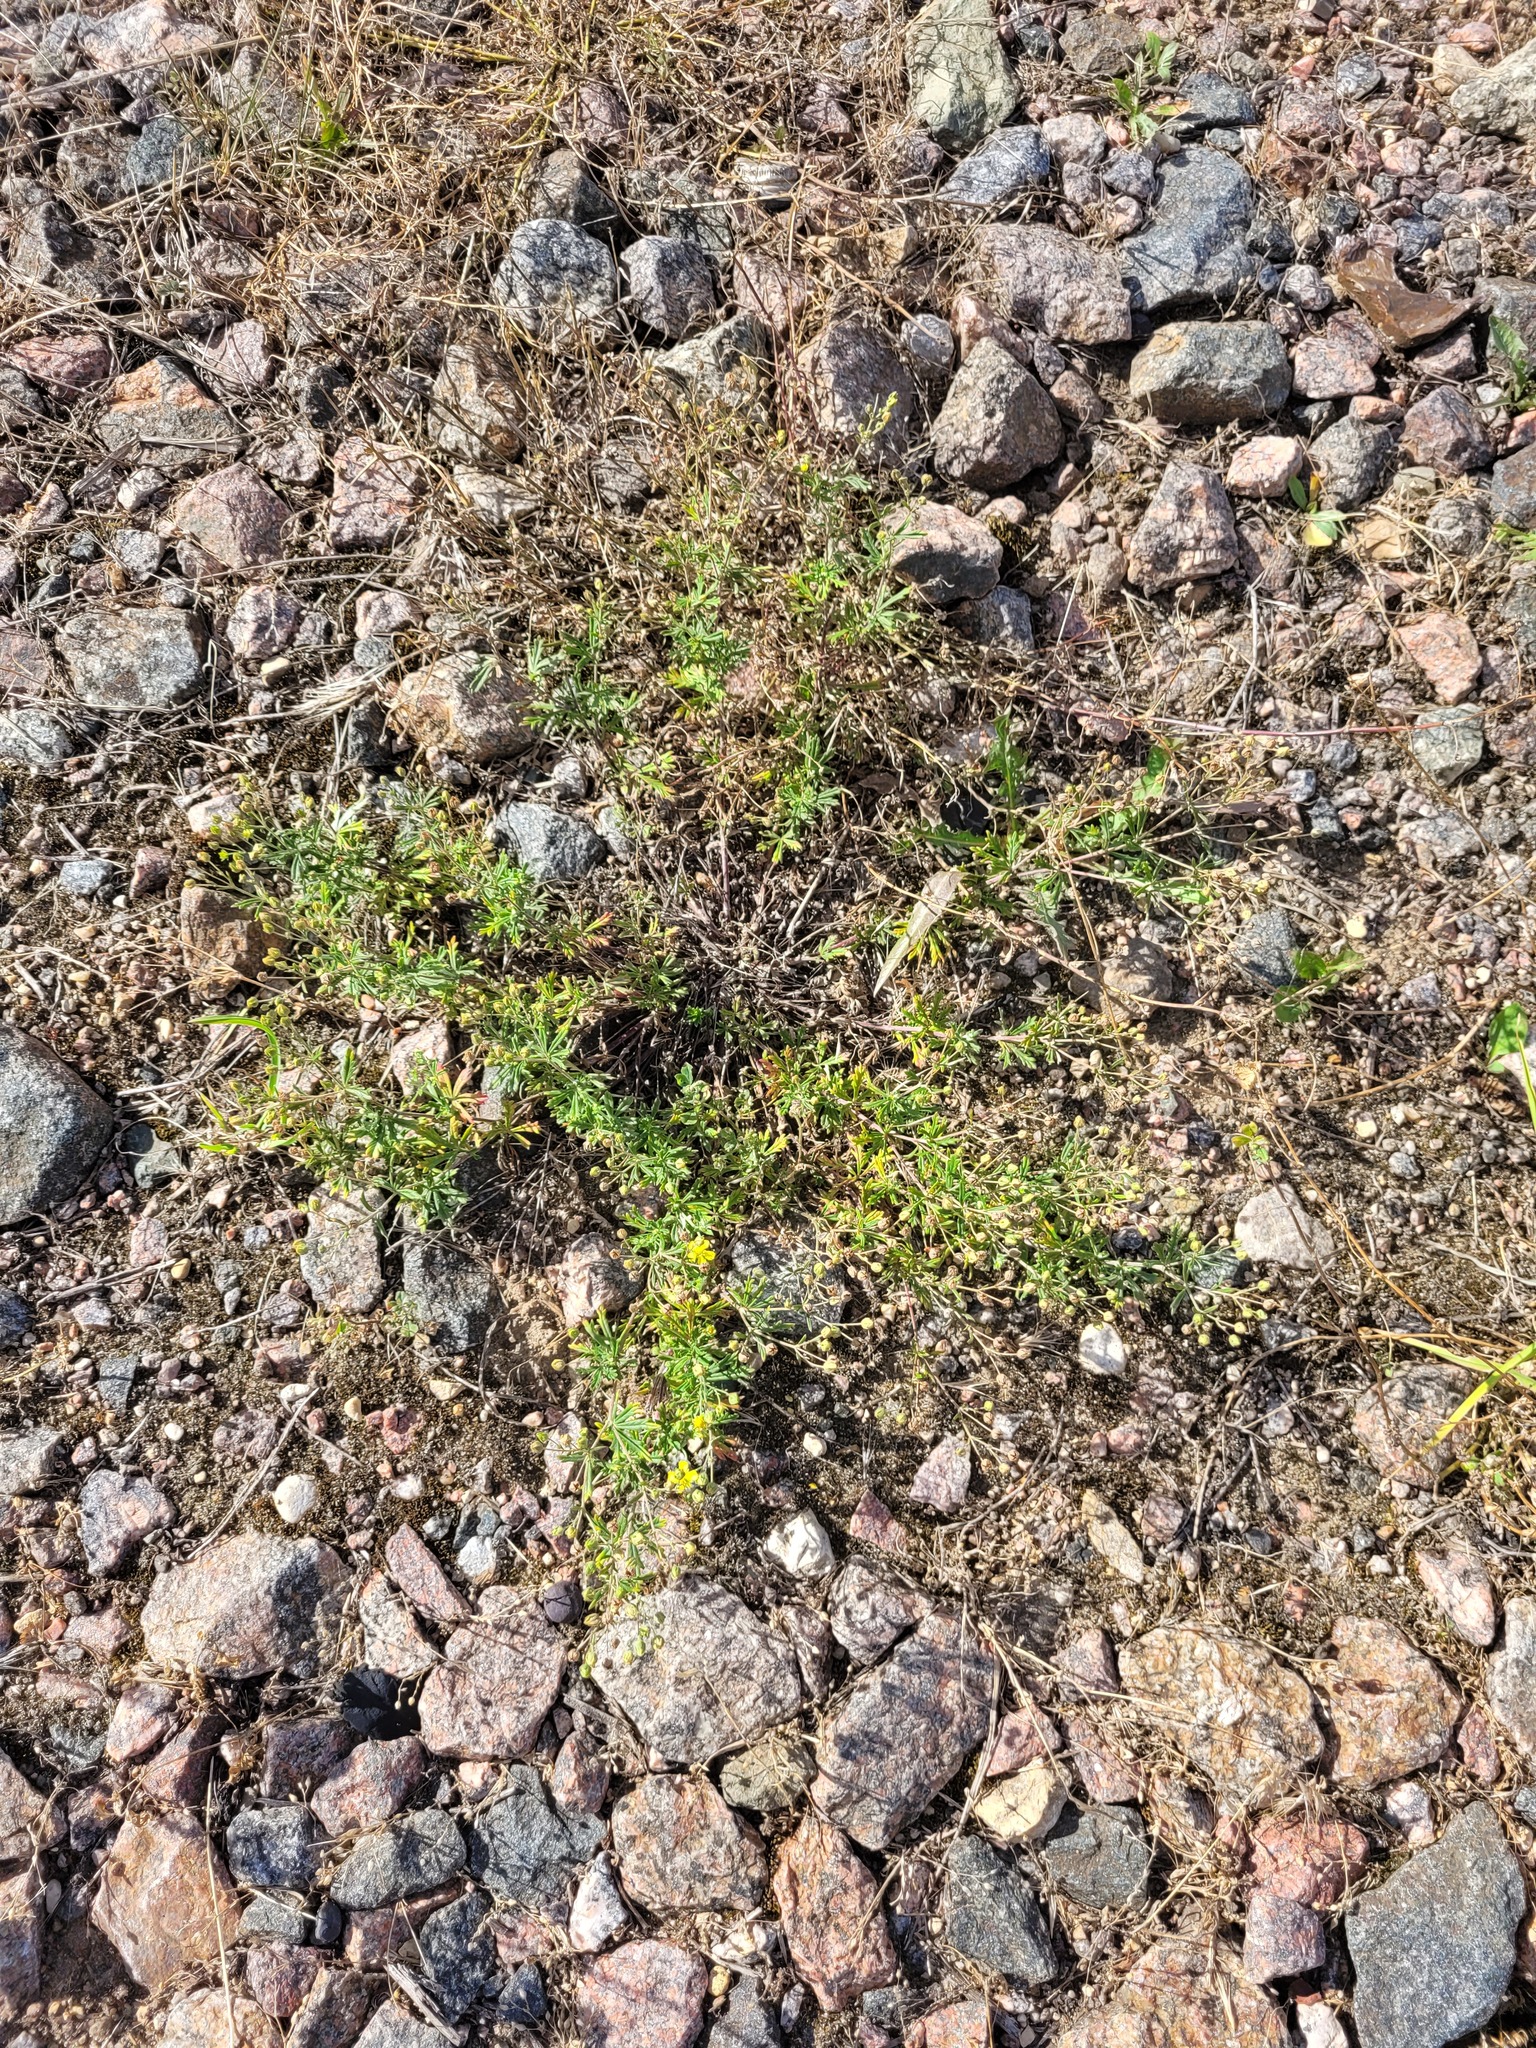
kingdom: Plantae
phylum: Tracheophyta
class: Magnoliopsida
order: Rosales
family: Rosaceae
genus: Potentilla
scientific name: Potentilla argentea
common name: Hoary cinquefoil
